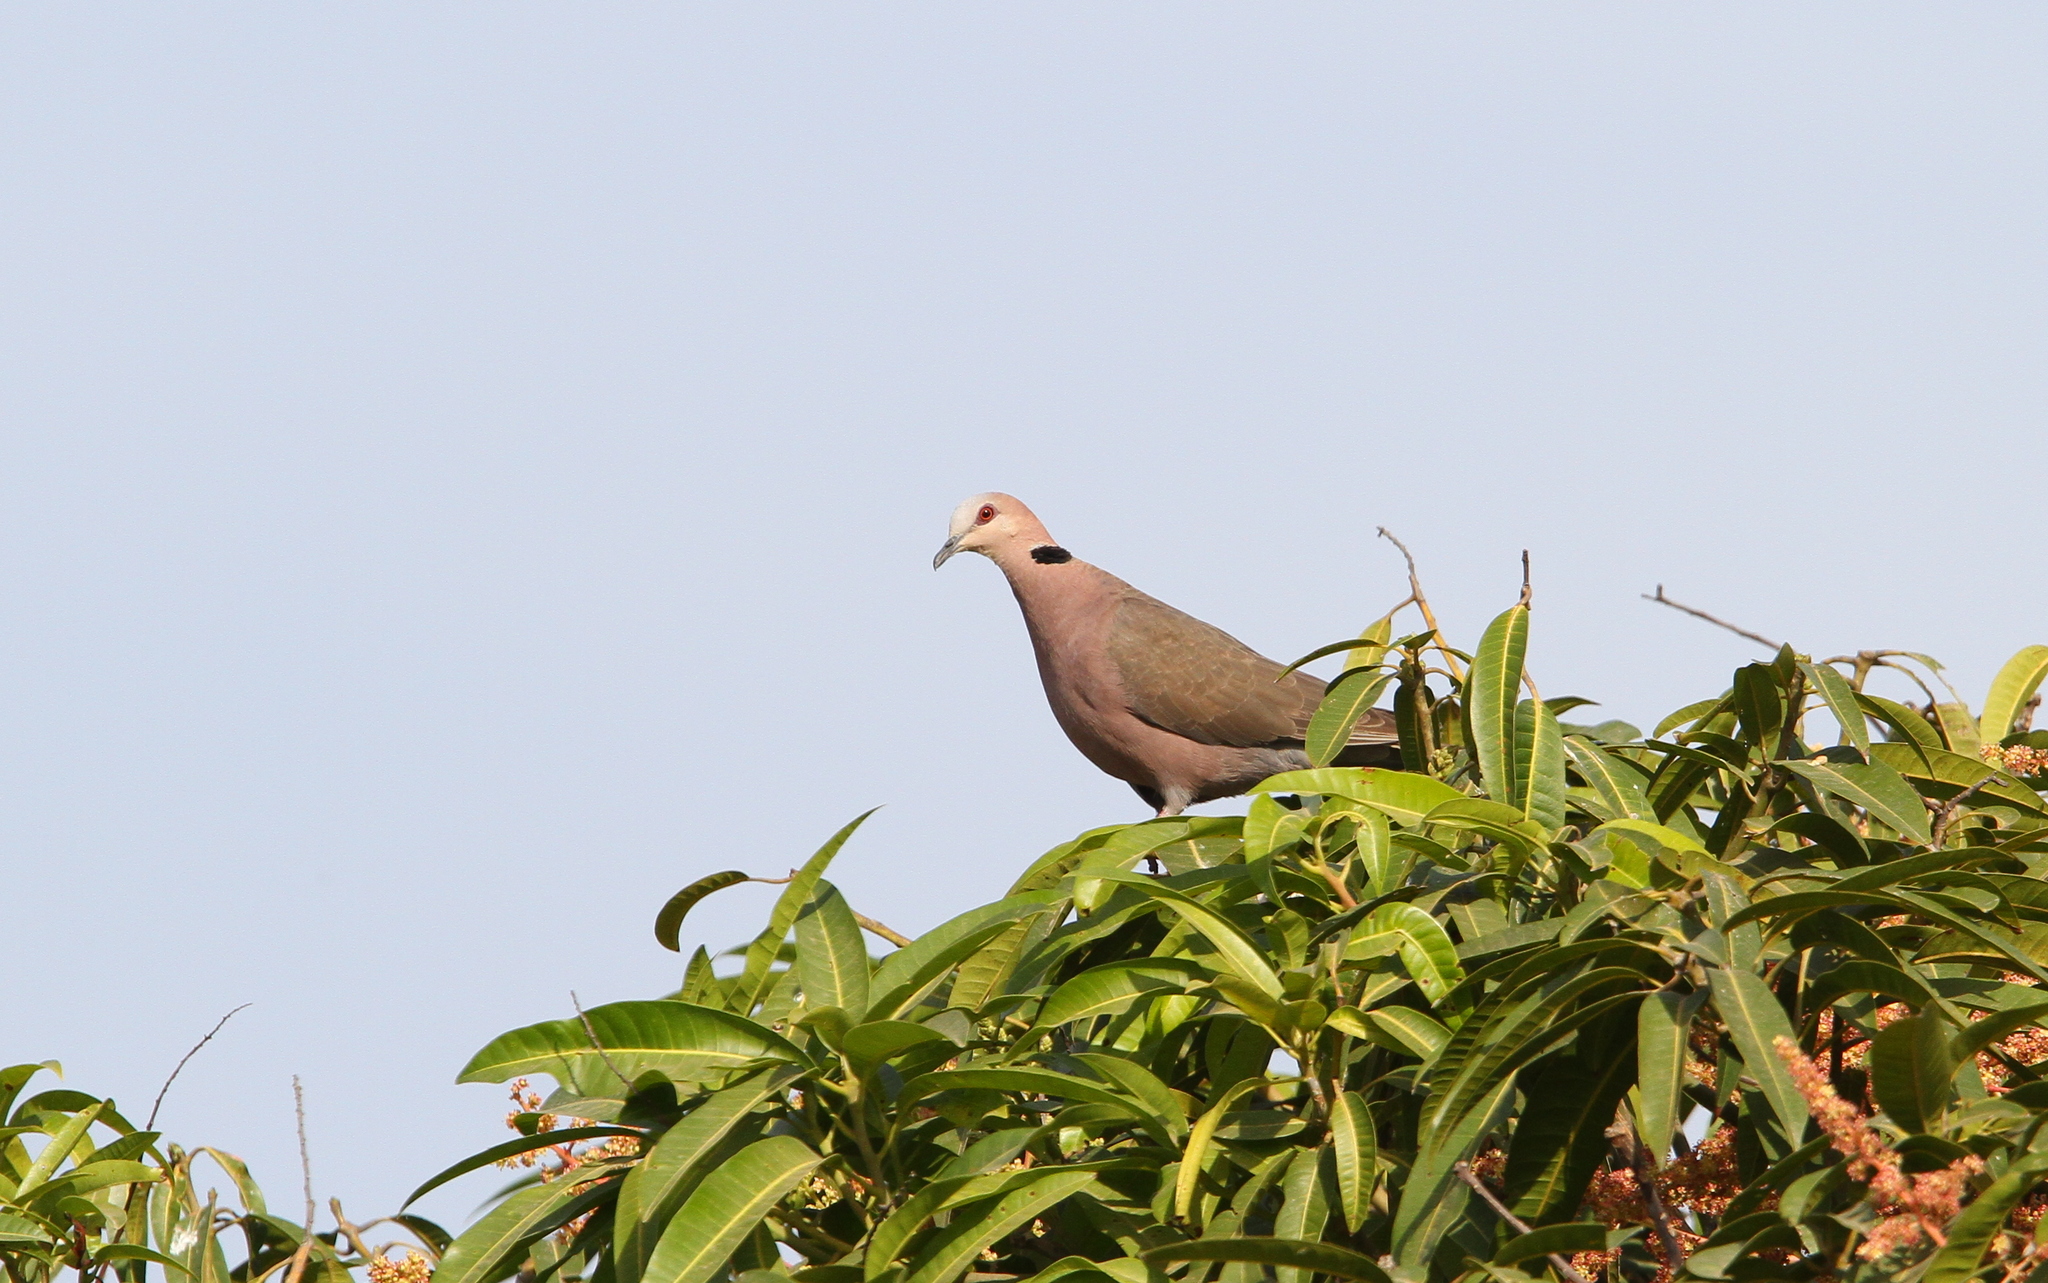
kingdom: Animalia
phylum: Chordata
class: Aves
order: Columbiformes
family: Columbidae
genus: Streptopelia
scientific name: Streptopelia semitorquata
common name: Red-eyed dove
